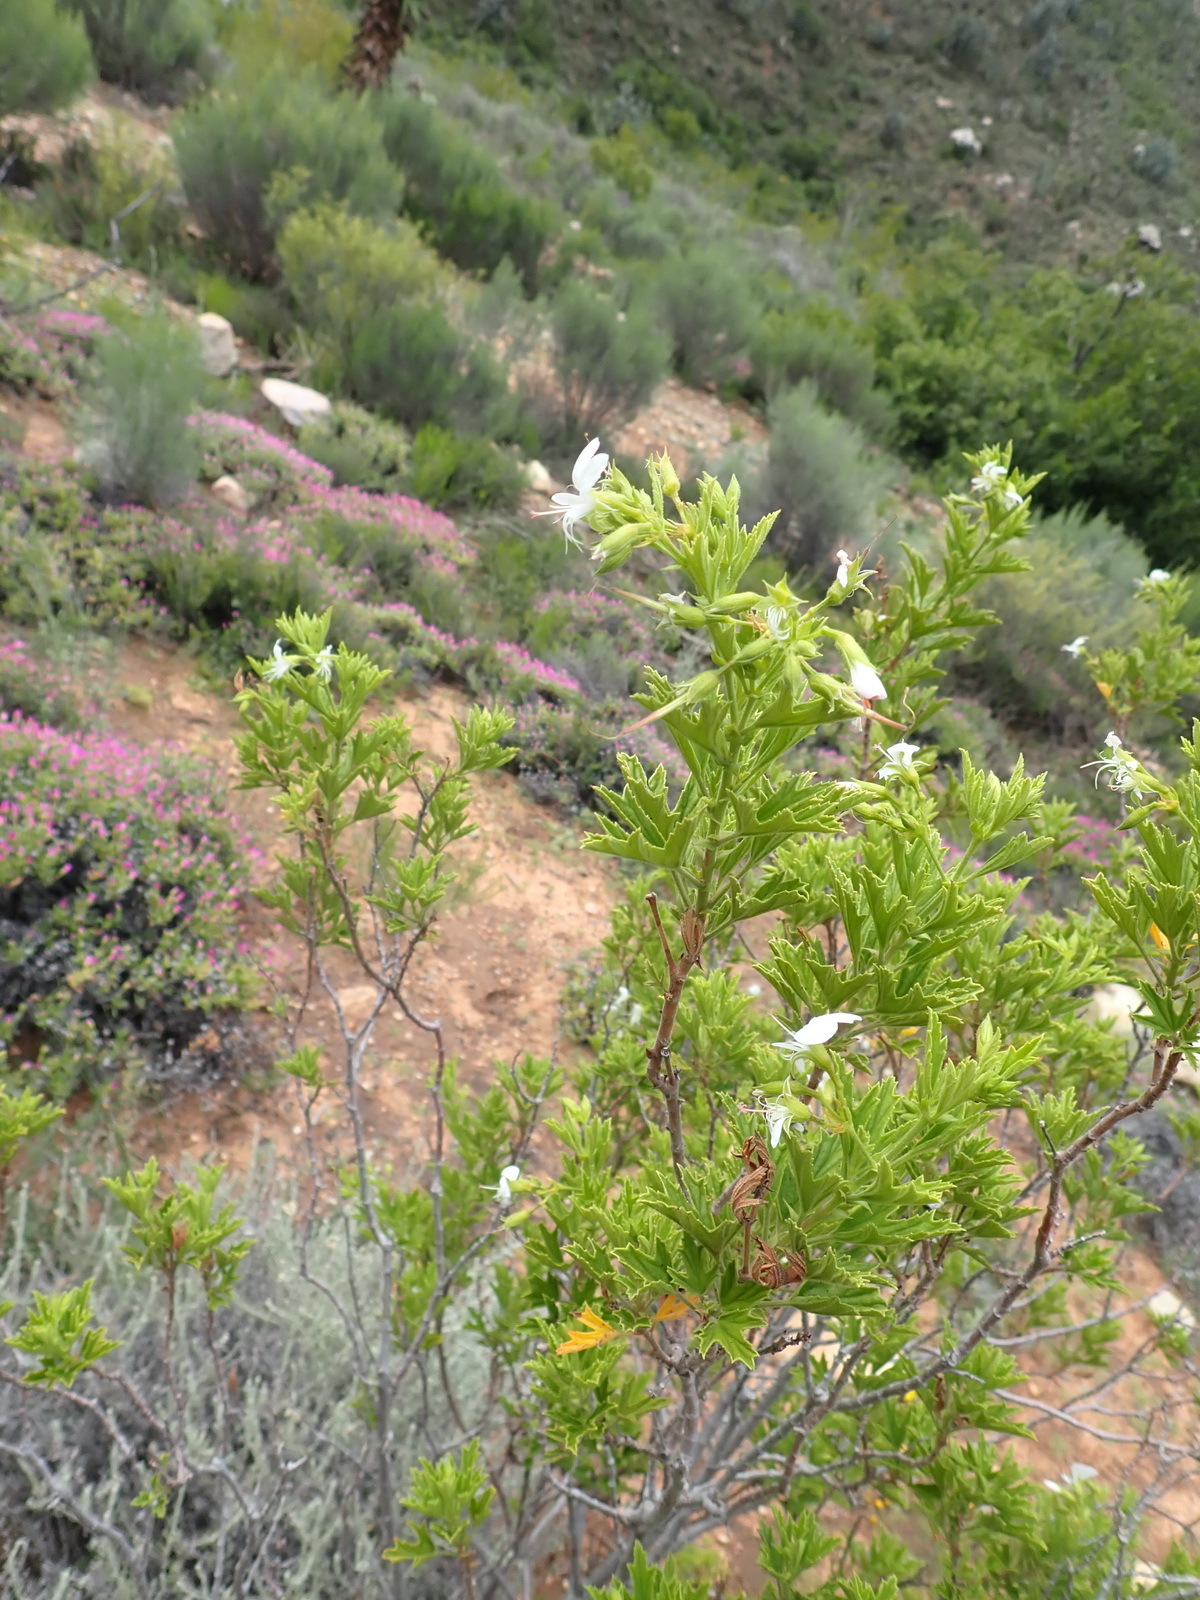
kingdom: Plantae
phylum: Tracheophyta
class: Magnoliopsida
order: Geraniales
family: Geraniaceae
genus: Pelargonium
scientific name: Pelargonium ribifolium
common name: Currant-leaf pelargonium
